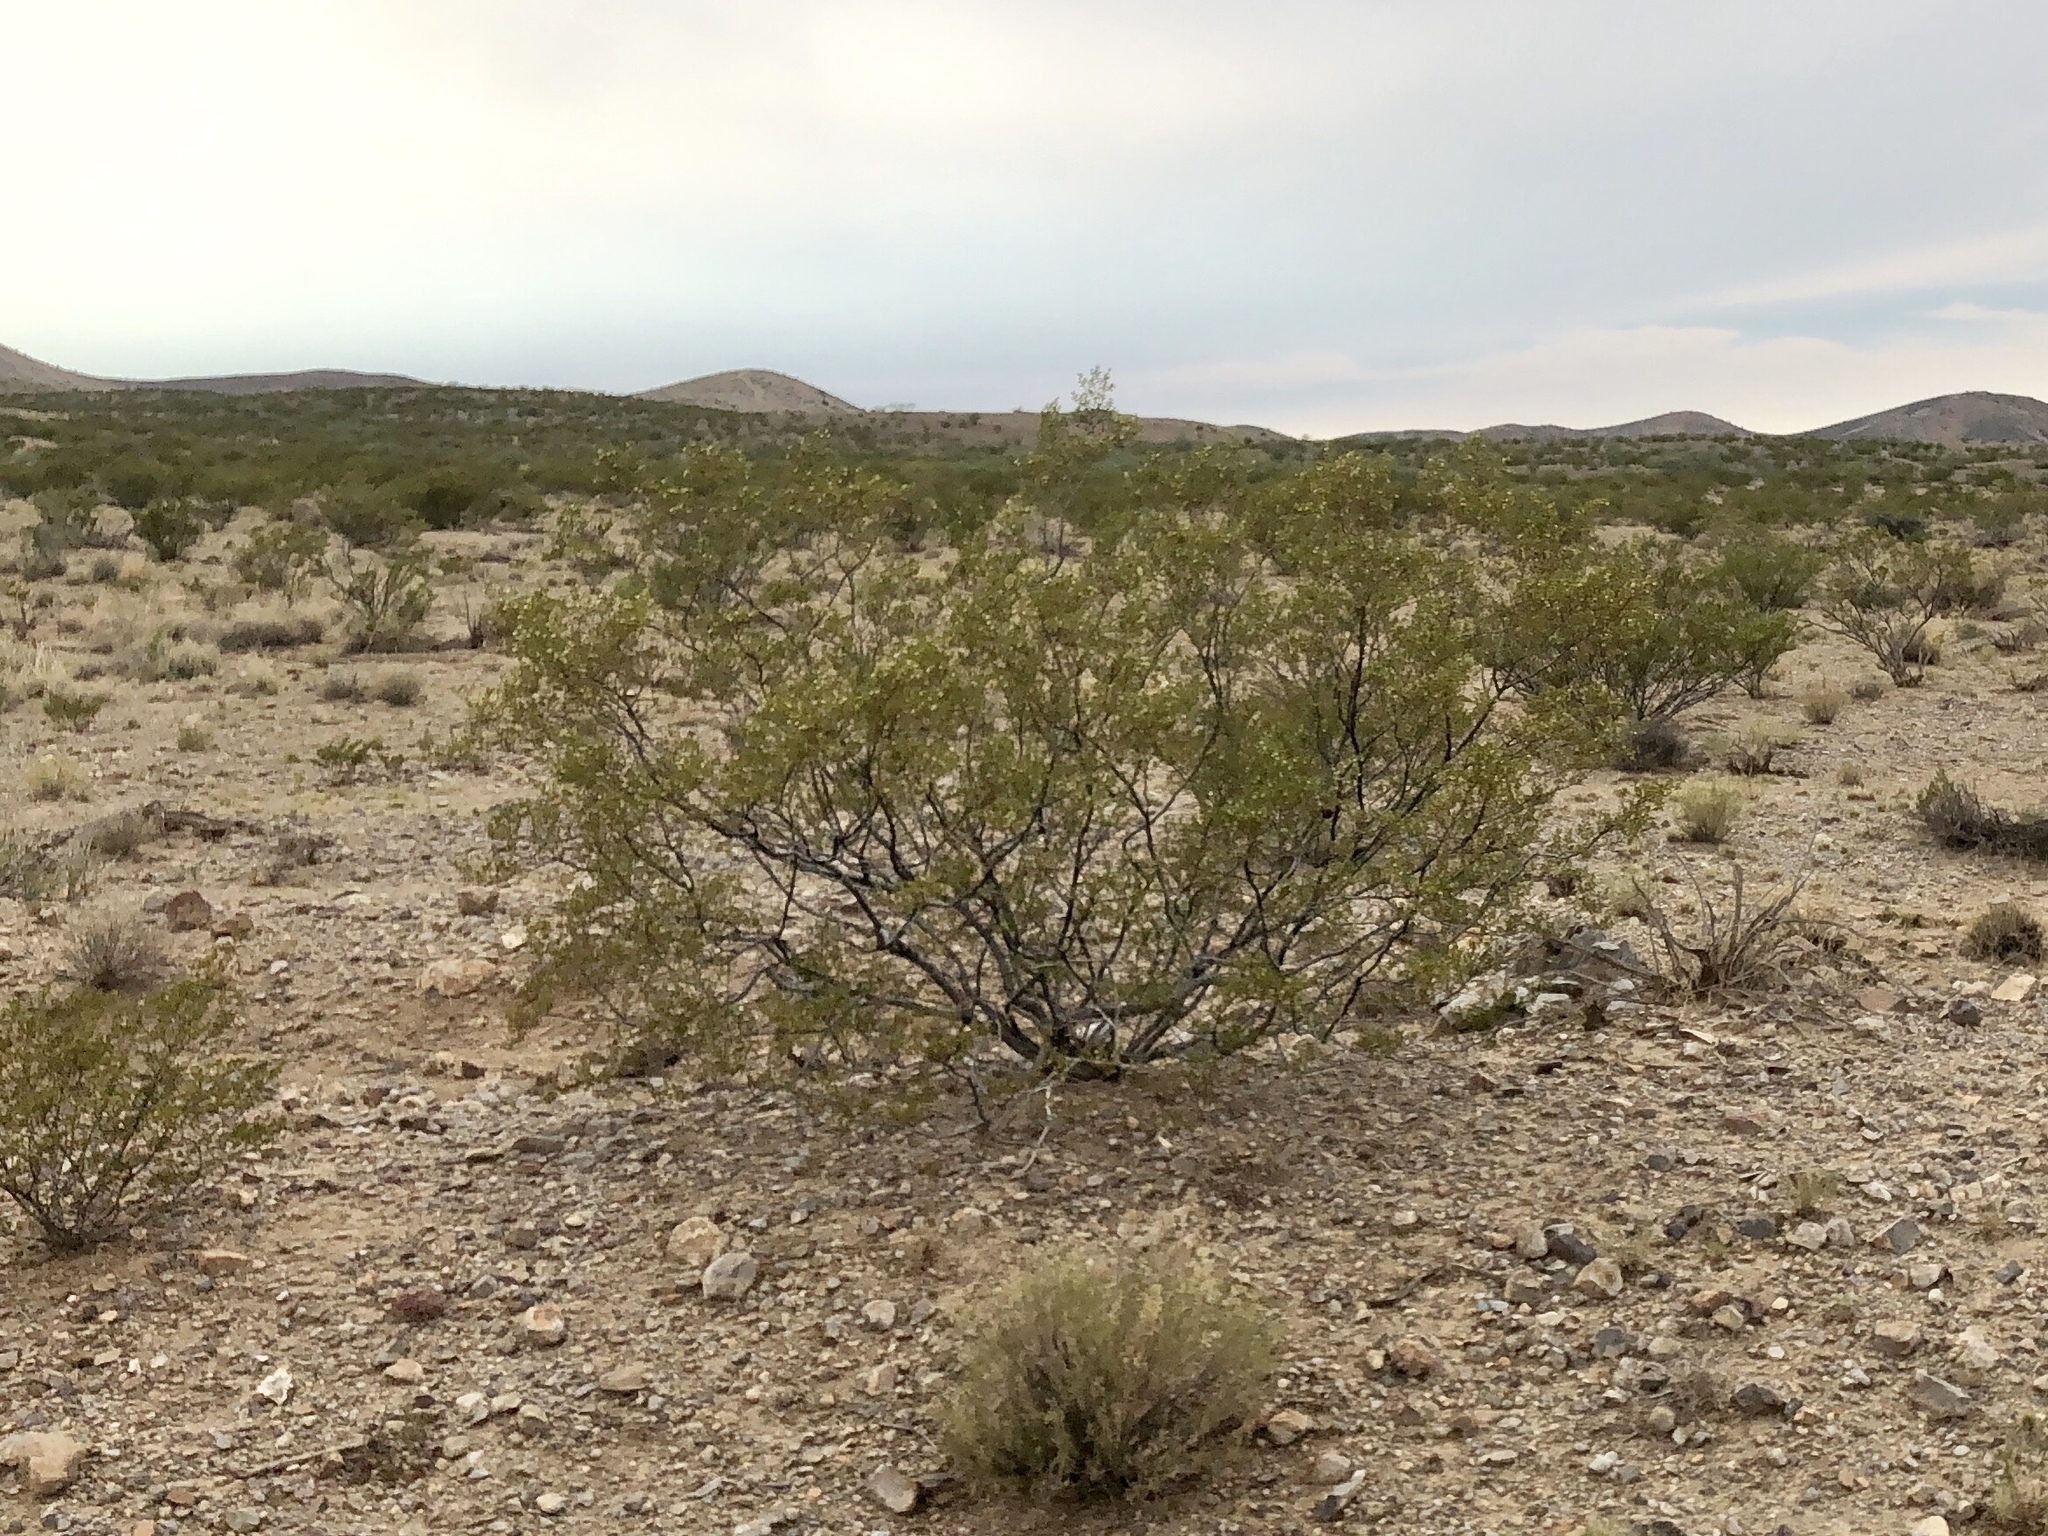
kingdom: Plantae
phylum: Tracheophyta
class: Magnoliopsida
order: Zygophyllales
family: Zygophyllaceae
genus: Larrea
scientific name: Larrea tridentata
